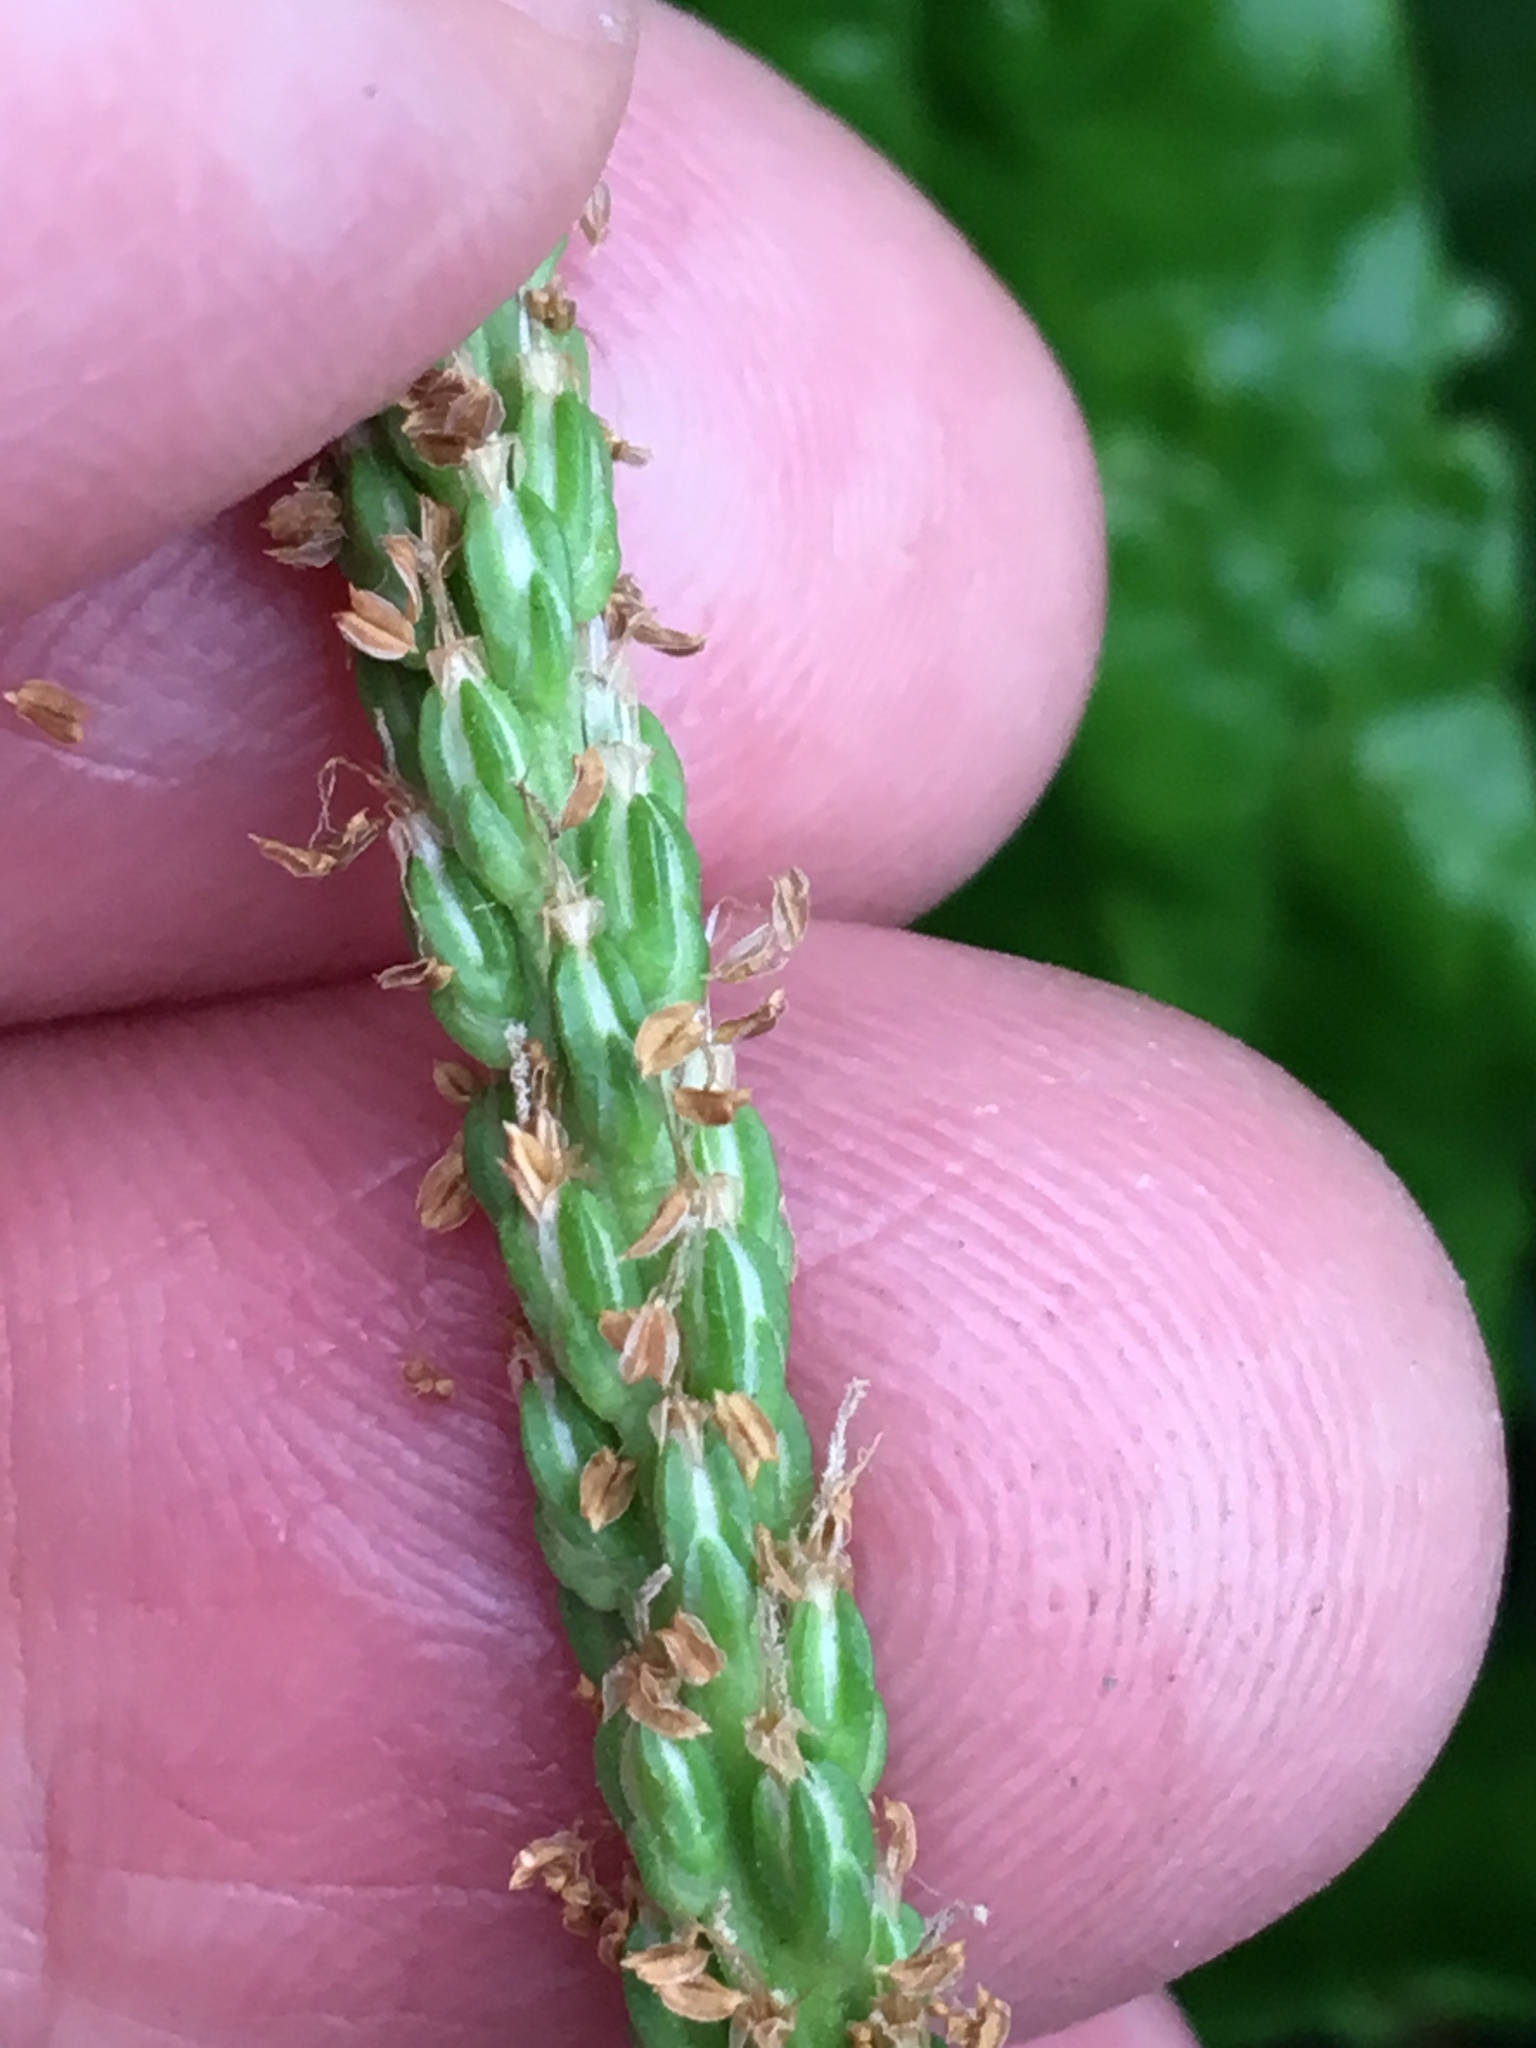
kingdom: Plantae
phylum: Tracheophyta
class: Magnoliopsida
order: Lamiales
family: Plantaginaceae
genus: Plantago
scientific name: Plantago rugelii
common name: American plantain
